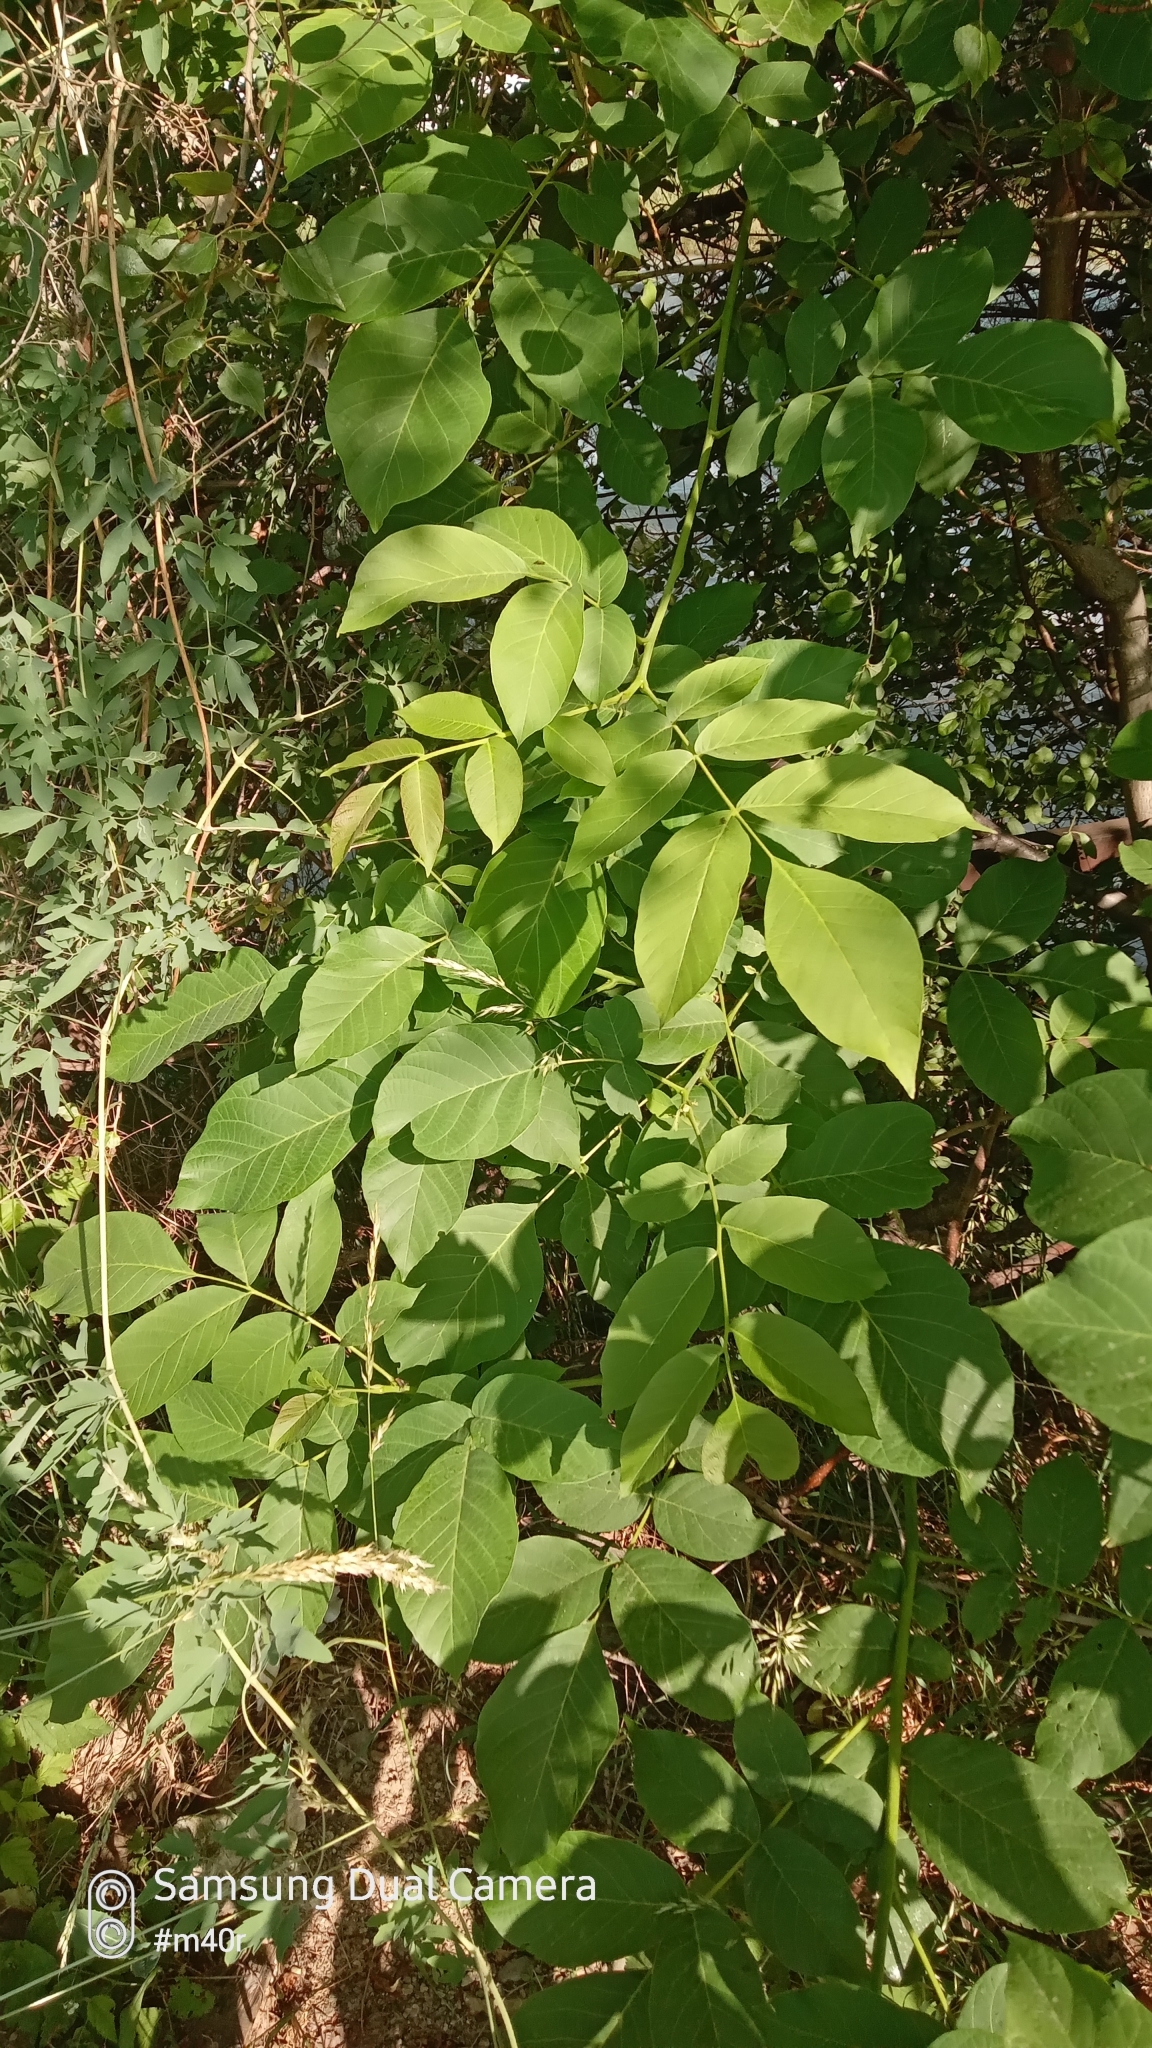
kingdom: Plantae
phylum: Tracheophyta
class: Magnoliopsida
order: Fagales
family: Juglandaceae
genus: Juglans
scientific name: Juglans regia
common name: Walnut
